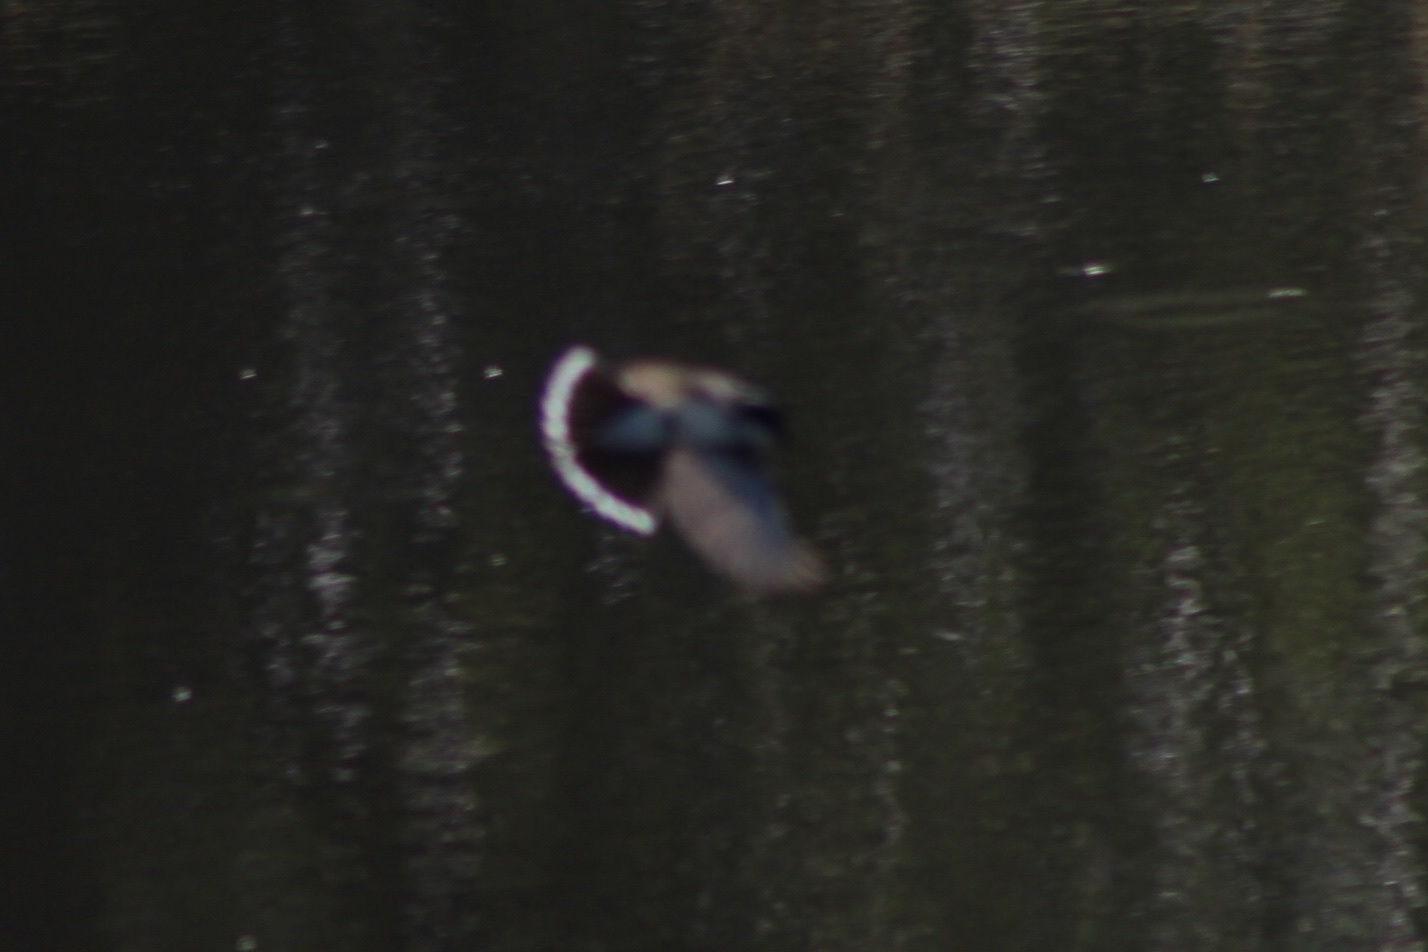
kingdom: Animalia
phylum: Chordata
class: Aves
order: Passeriformes
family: Tyrannidae
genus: Tyrannus
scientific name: Tyrannus tyrannus
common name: Eastern kingbird
